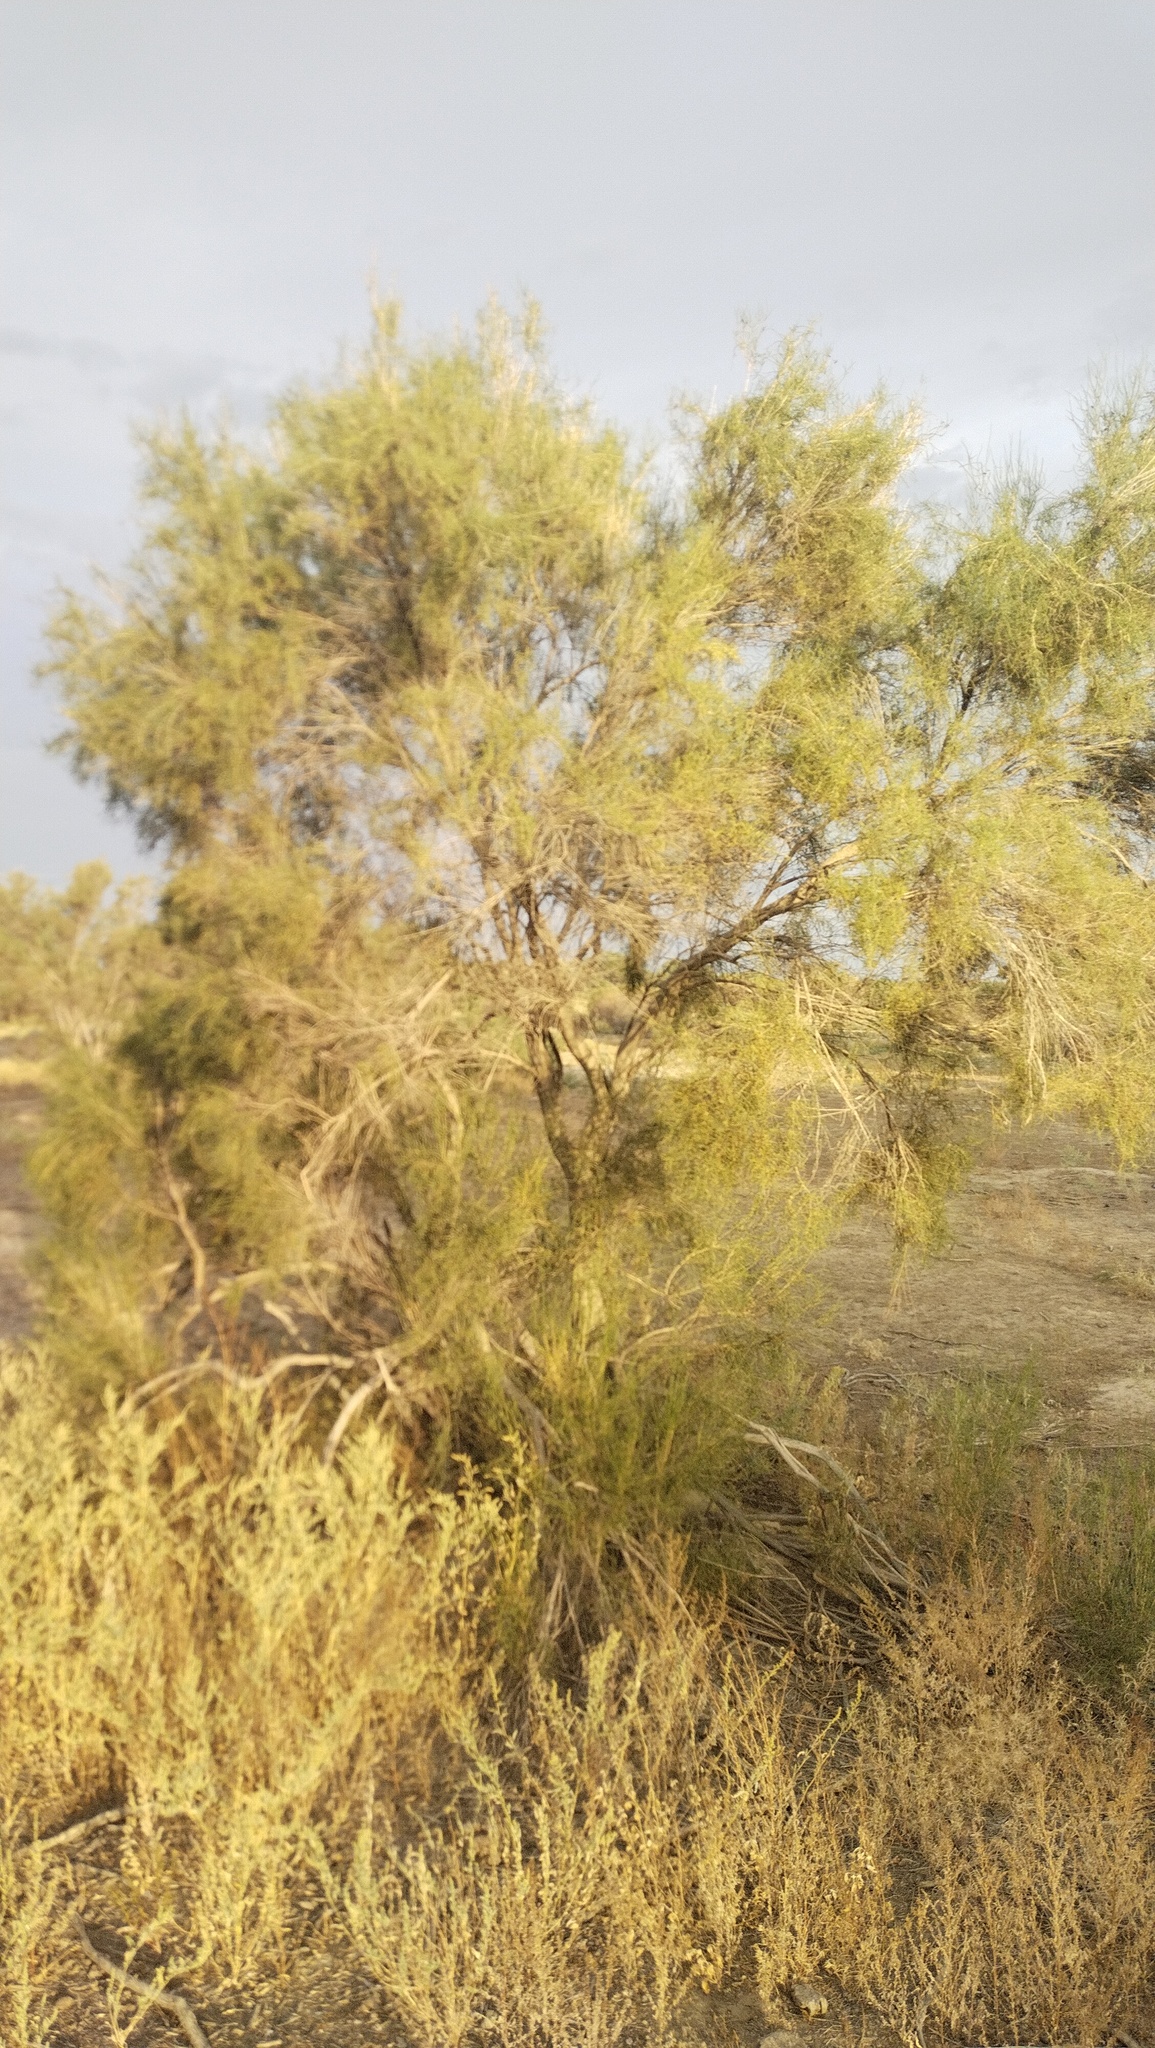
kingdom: Plantae
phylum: Tracheophyta
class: Magnoliopsida
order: Caryophyllales
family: Amaranthaceae
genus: Haloxylon
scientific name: Haloxylon ammodendron
